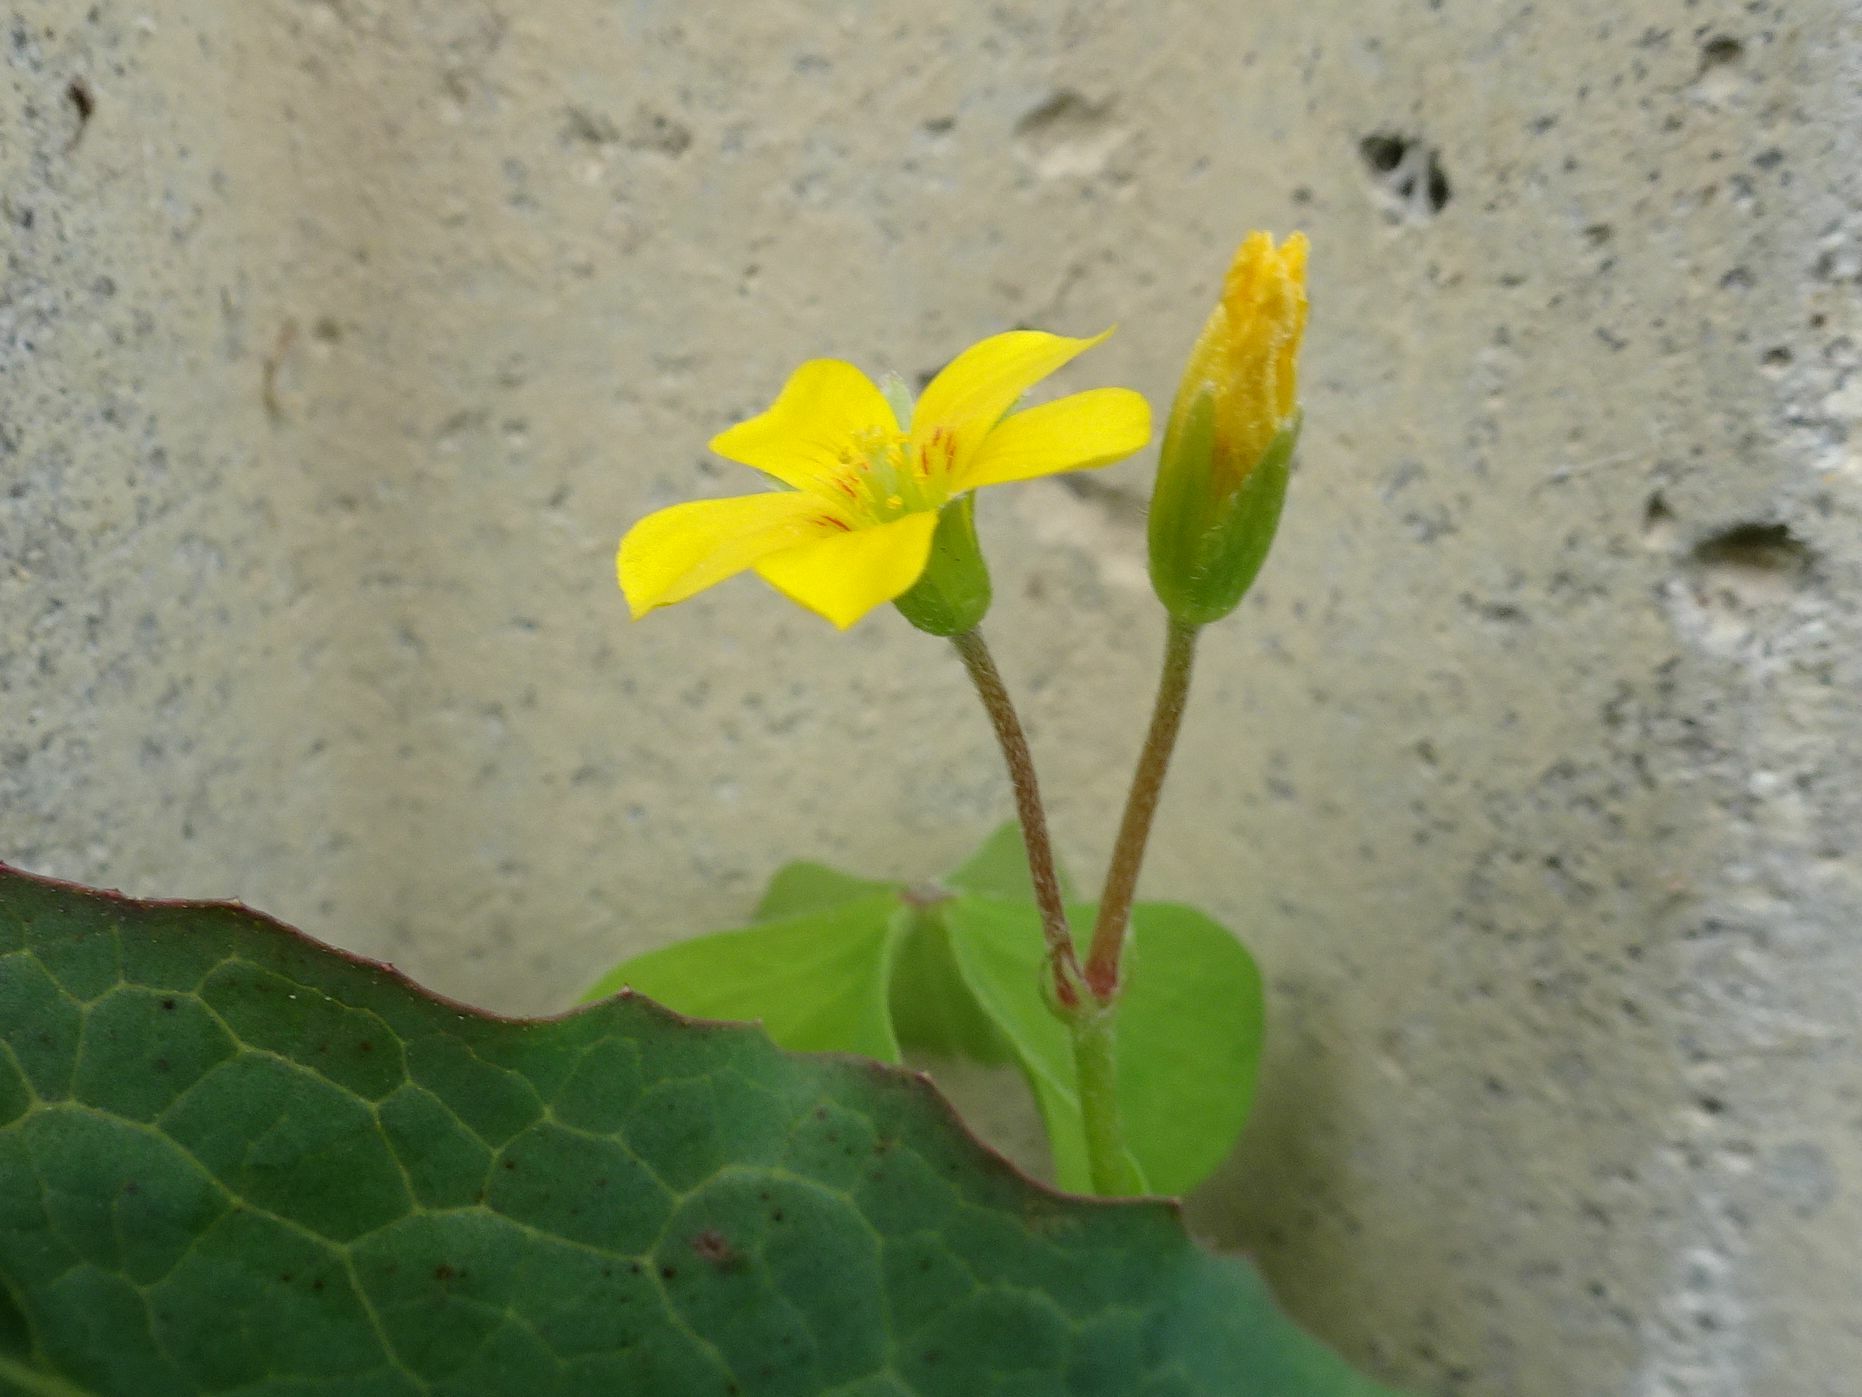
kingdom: Plantae
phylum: Tracheophyta
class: Magnoliopsida
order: Oxalidales
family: Oxalidaceae
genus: Oxalis
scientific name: Oxalis corniculata
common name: Procumbent yellow-sorrel
